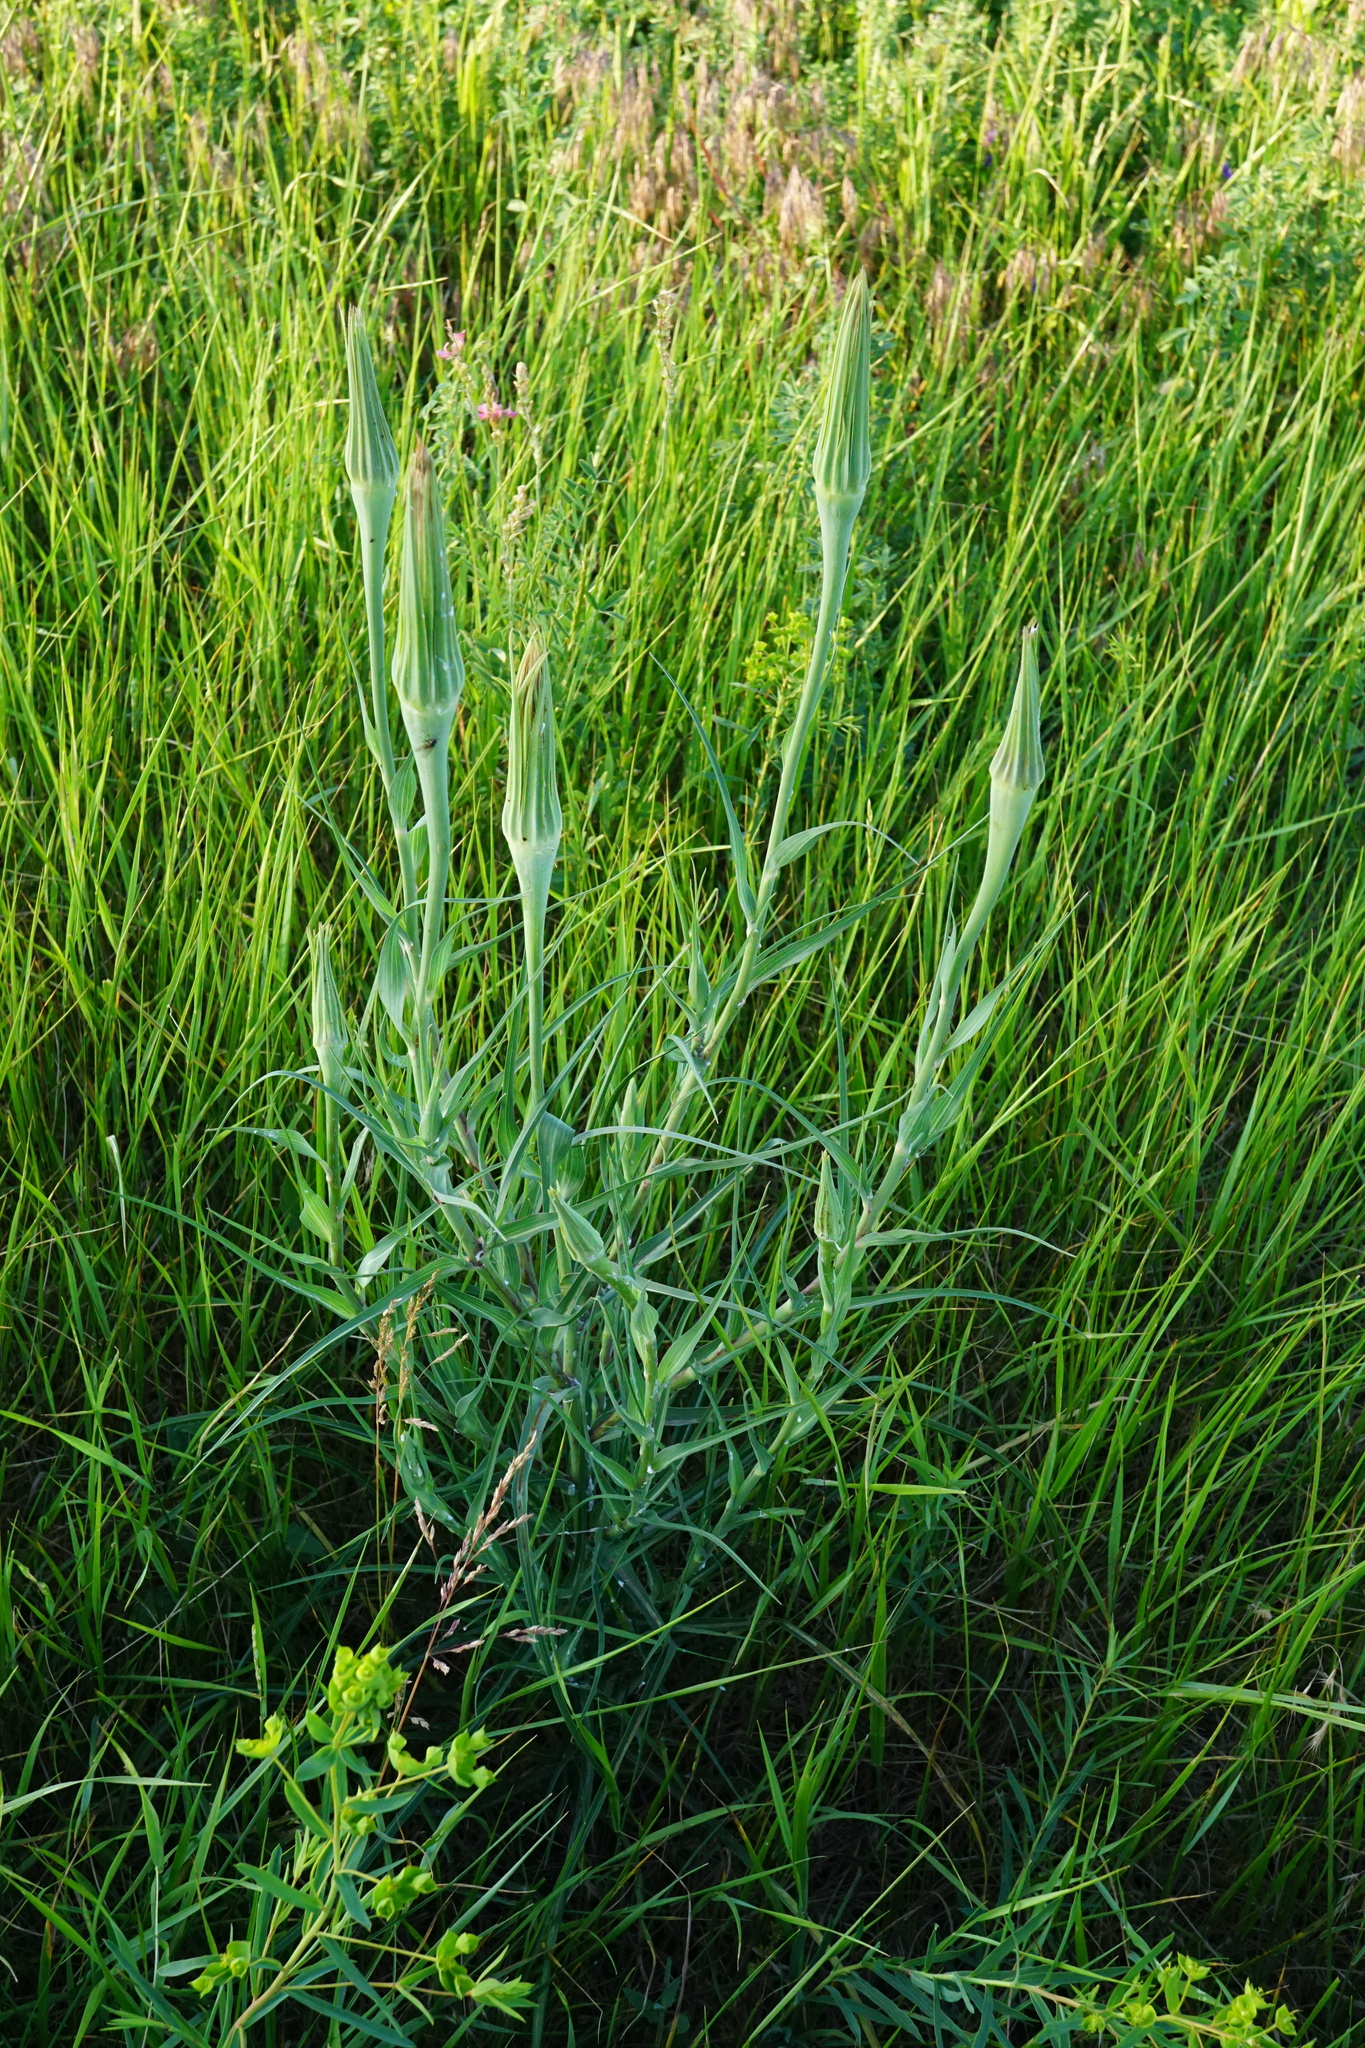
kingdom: Plantae
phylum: Tracheophyta
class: Magnoliopsida
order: Asterales
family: Asteraceae
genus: Tragopogon
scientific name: Tragopogon dubius
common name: Yellow salsify
